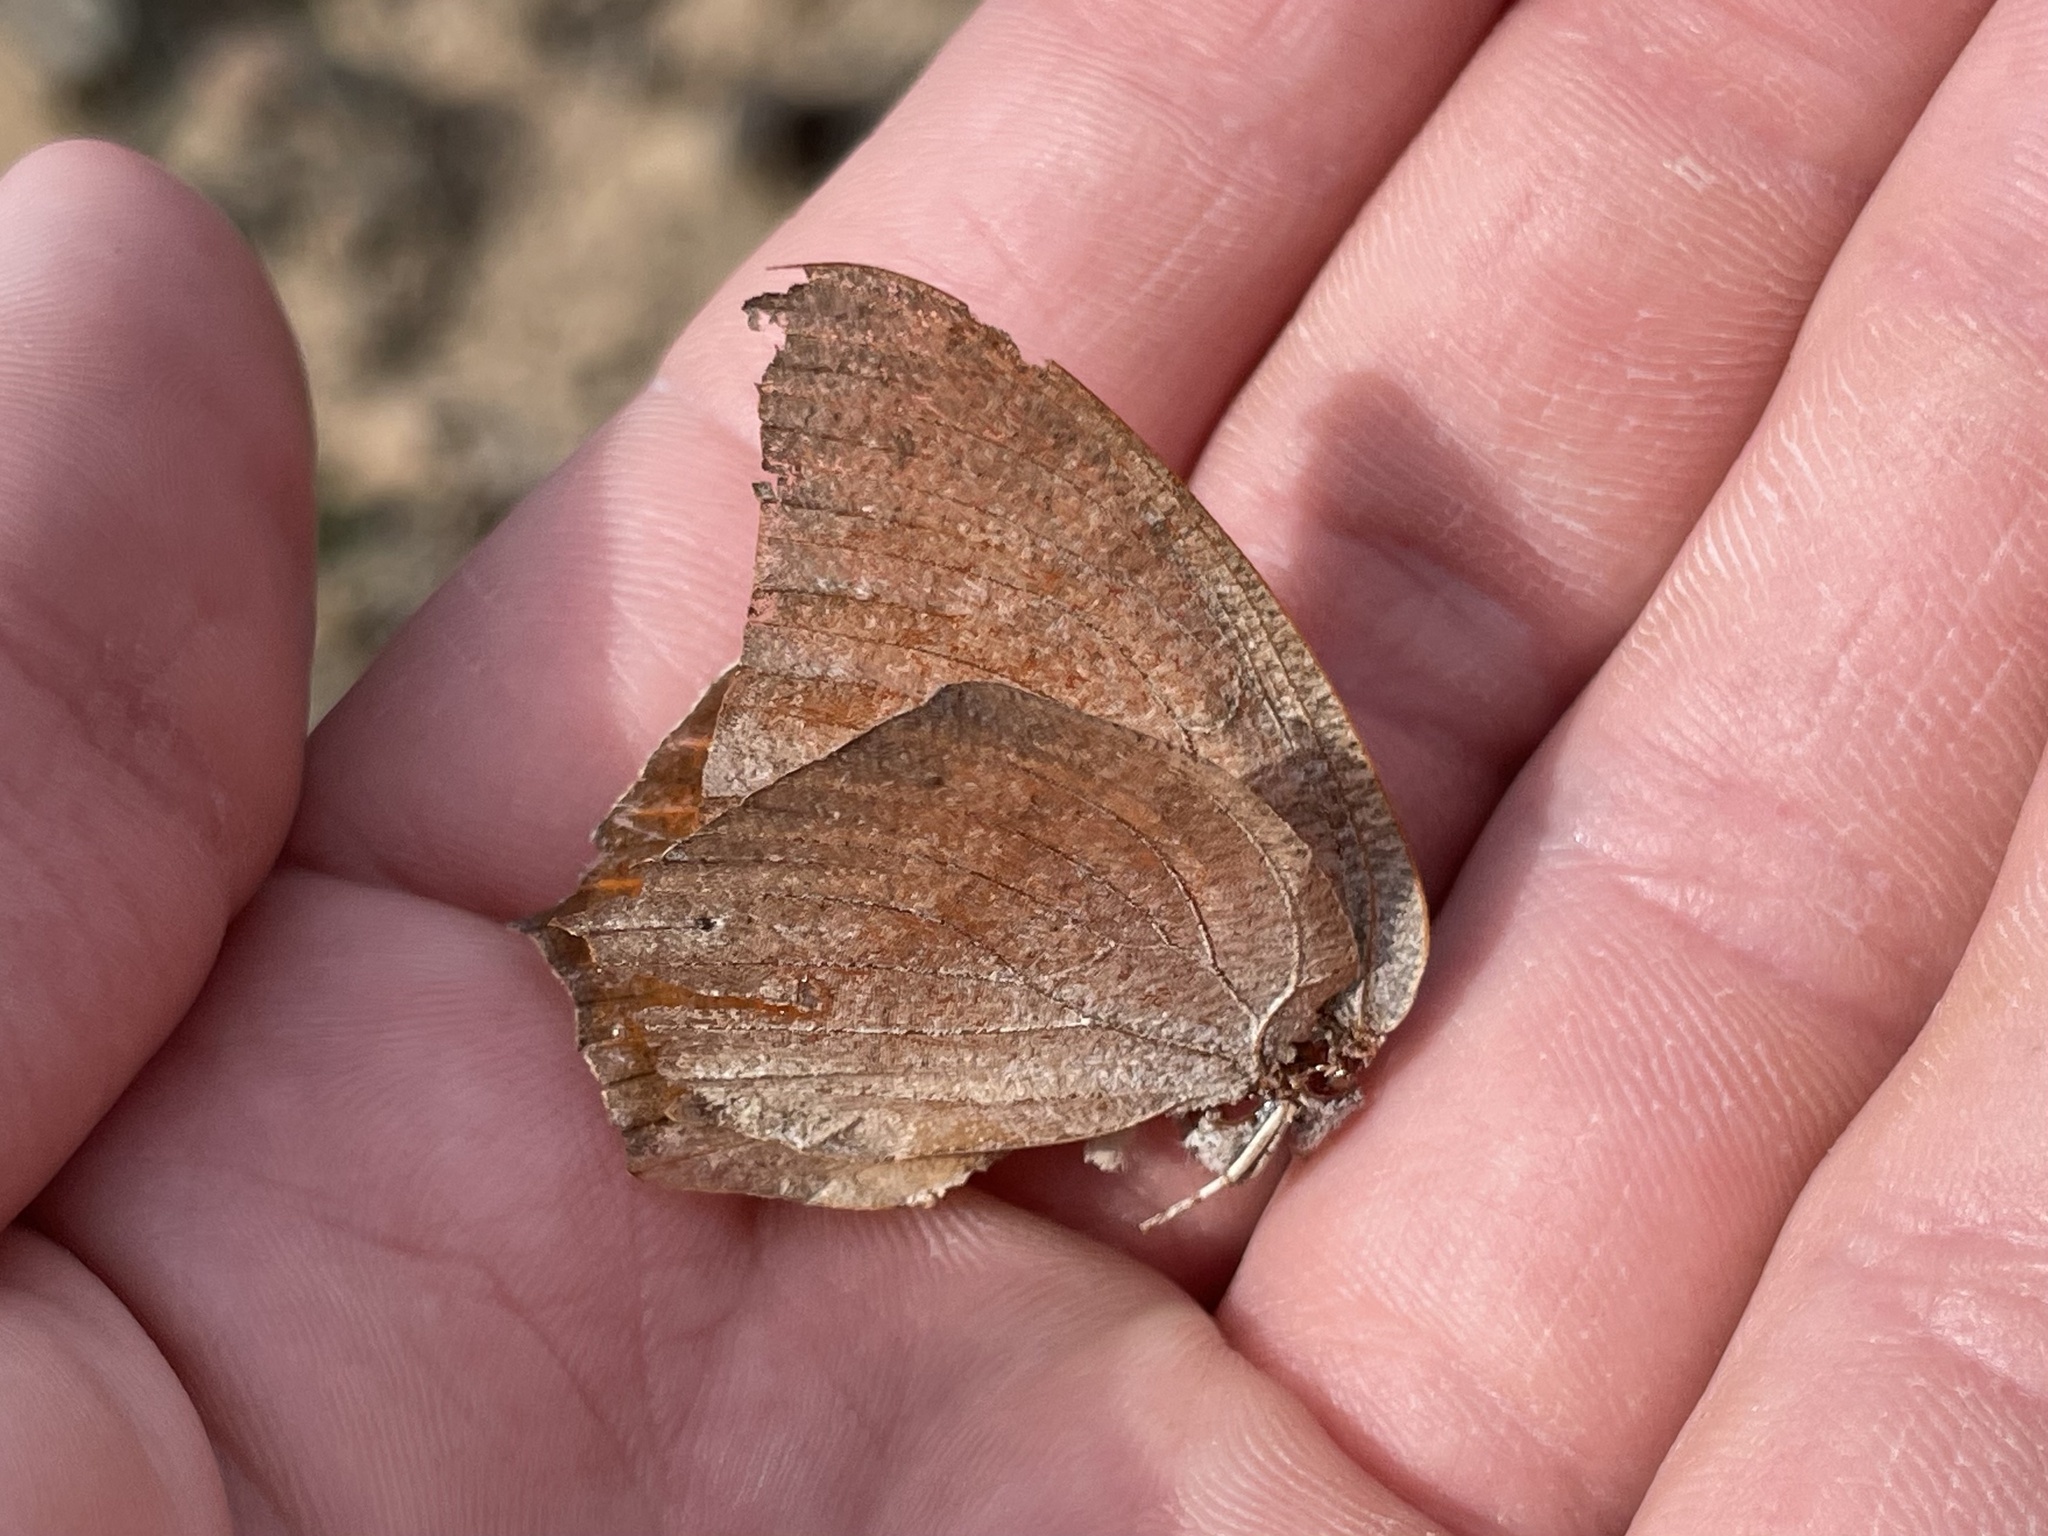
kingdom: Animalia
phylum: Arthropoda
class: Insecta
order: Lepidoptera
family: Nymphalidae
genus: Anaea
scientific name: Anaea andria
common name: Goatweed leafwing
